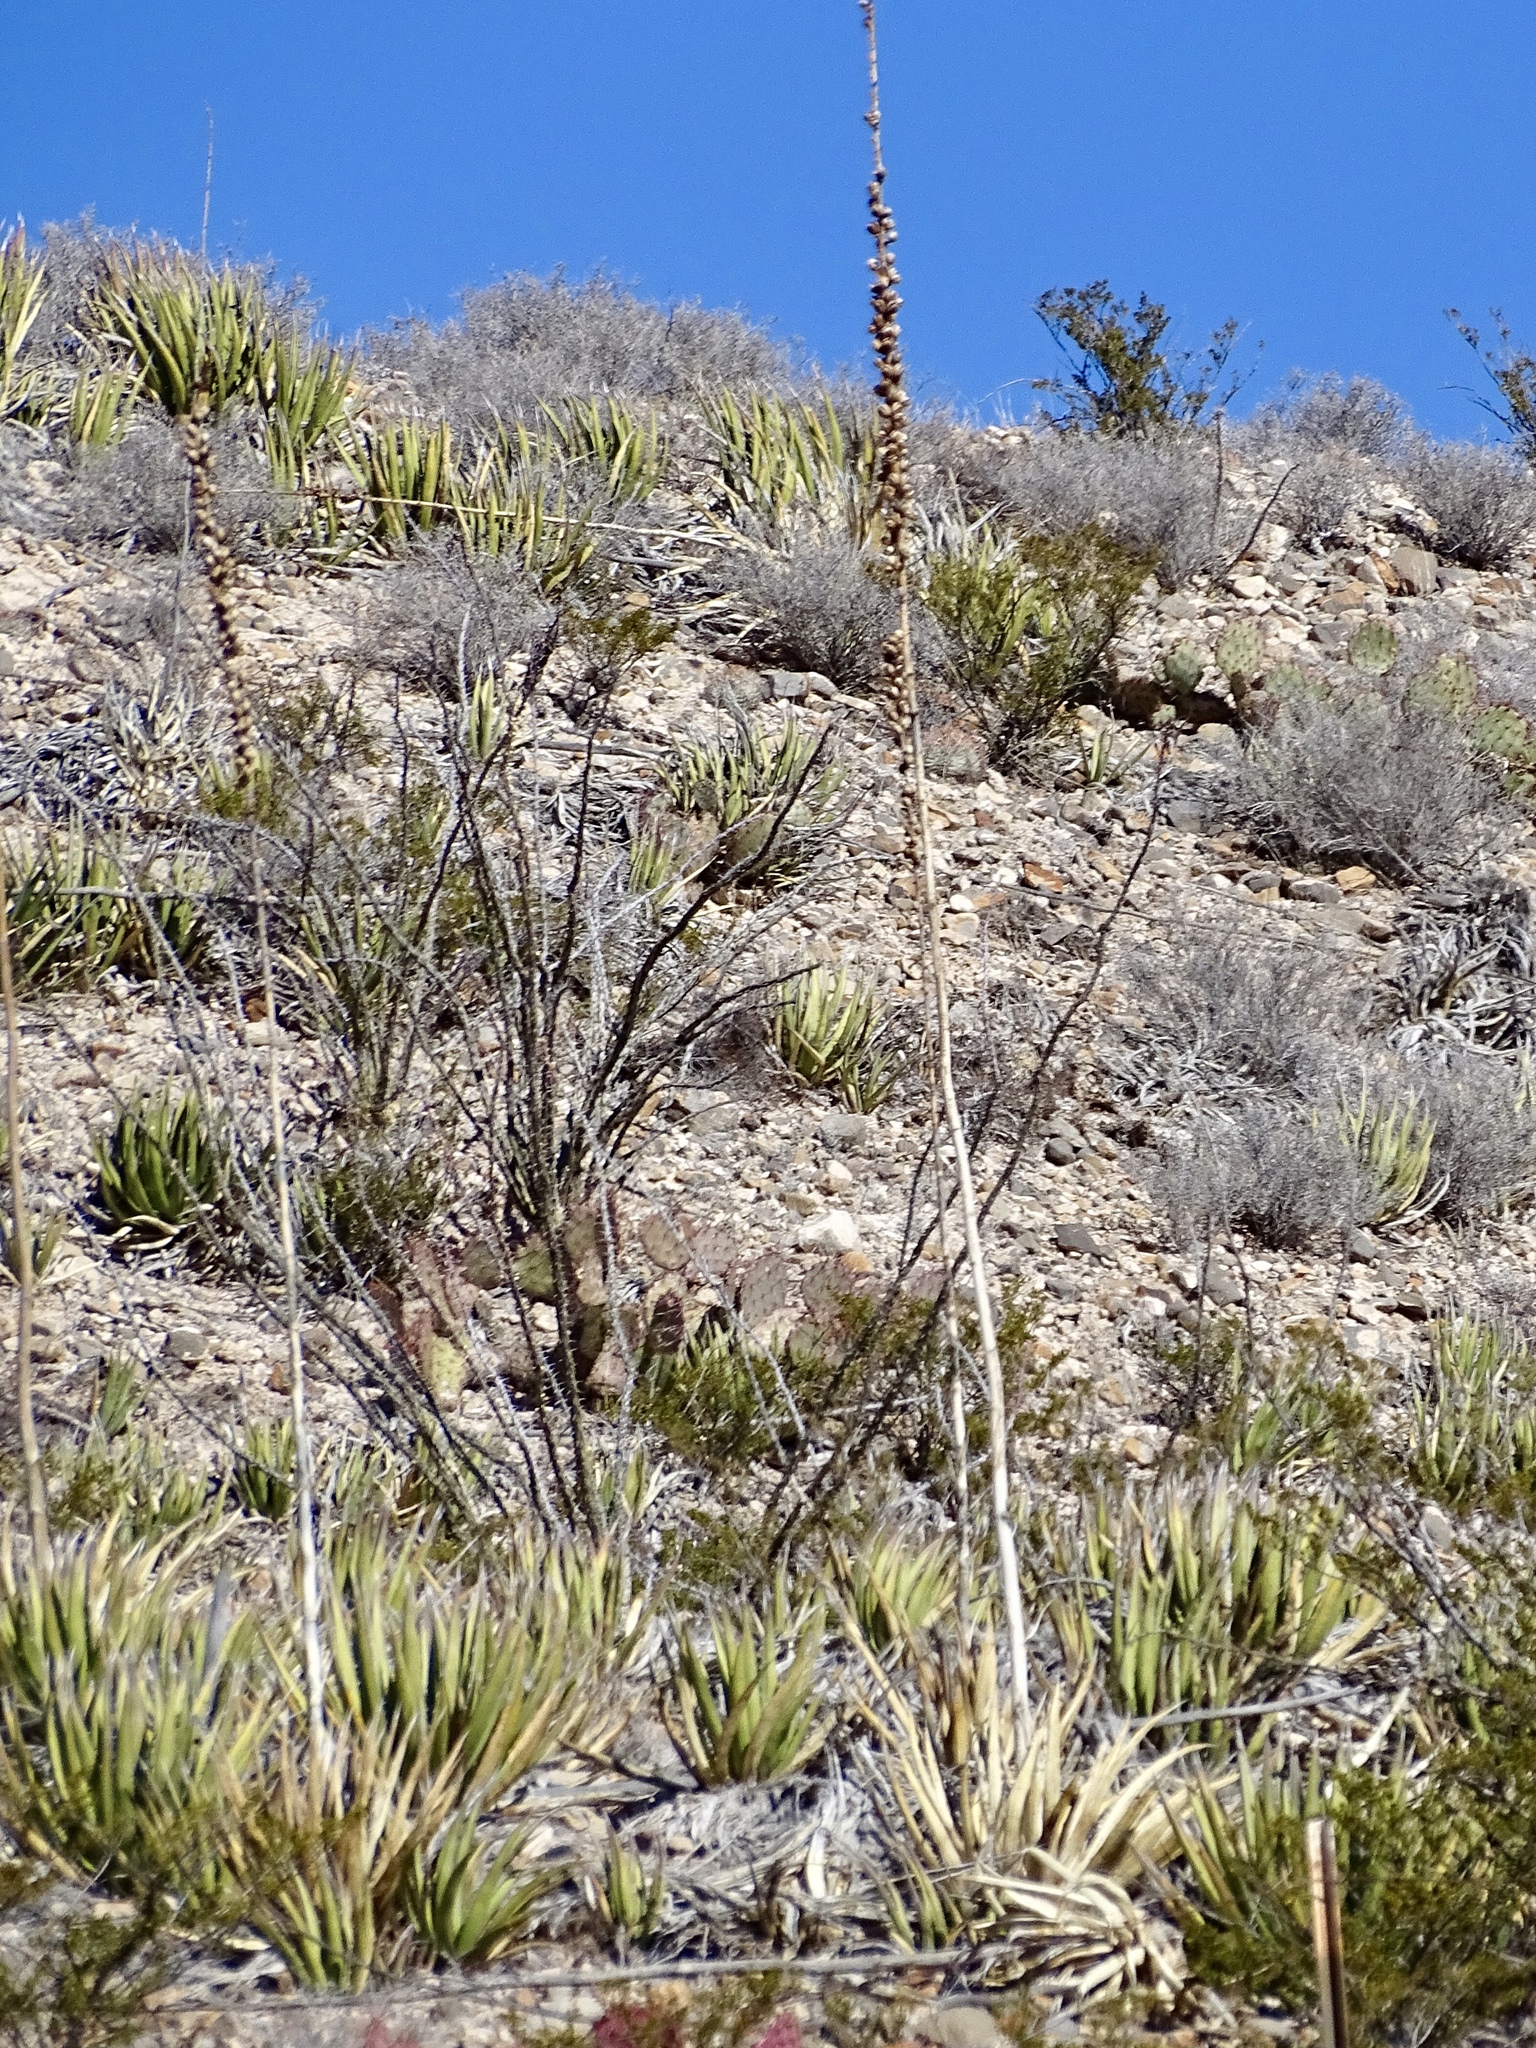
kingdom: Plantae
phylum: Tracheophyta
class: Liliopsida
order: Asparagales
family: Asparagaceae
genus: Agave
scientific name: Agave lechuguilla
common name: Lecheguilla agave
